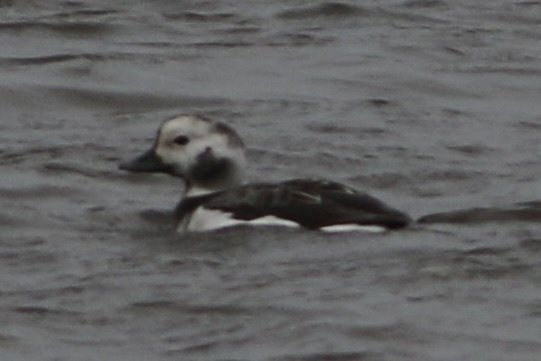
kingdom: Animalia
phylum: Chordata
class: Aves
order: Anseriformes
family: Anatidae
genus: Clangula
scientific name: Clangula hyemalis
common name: Long-tailed duck
